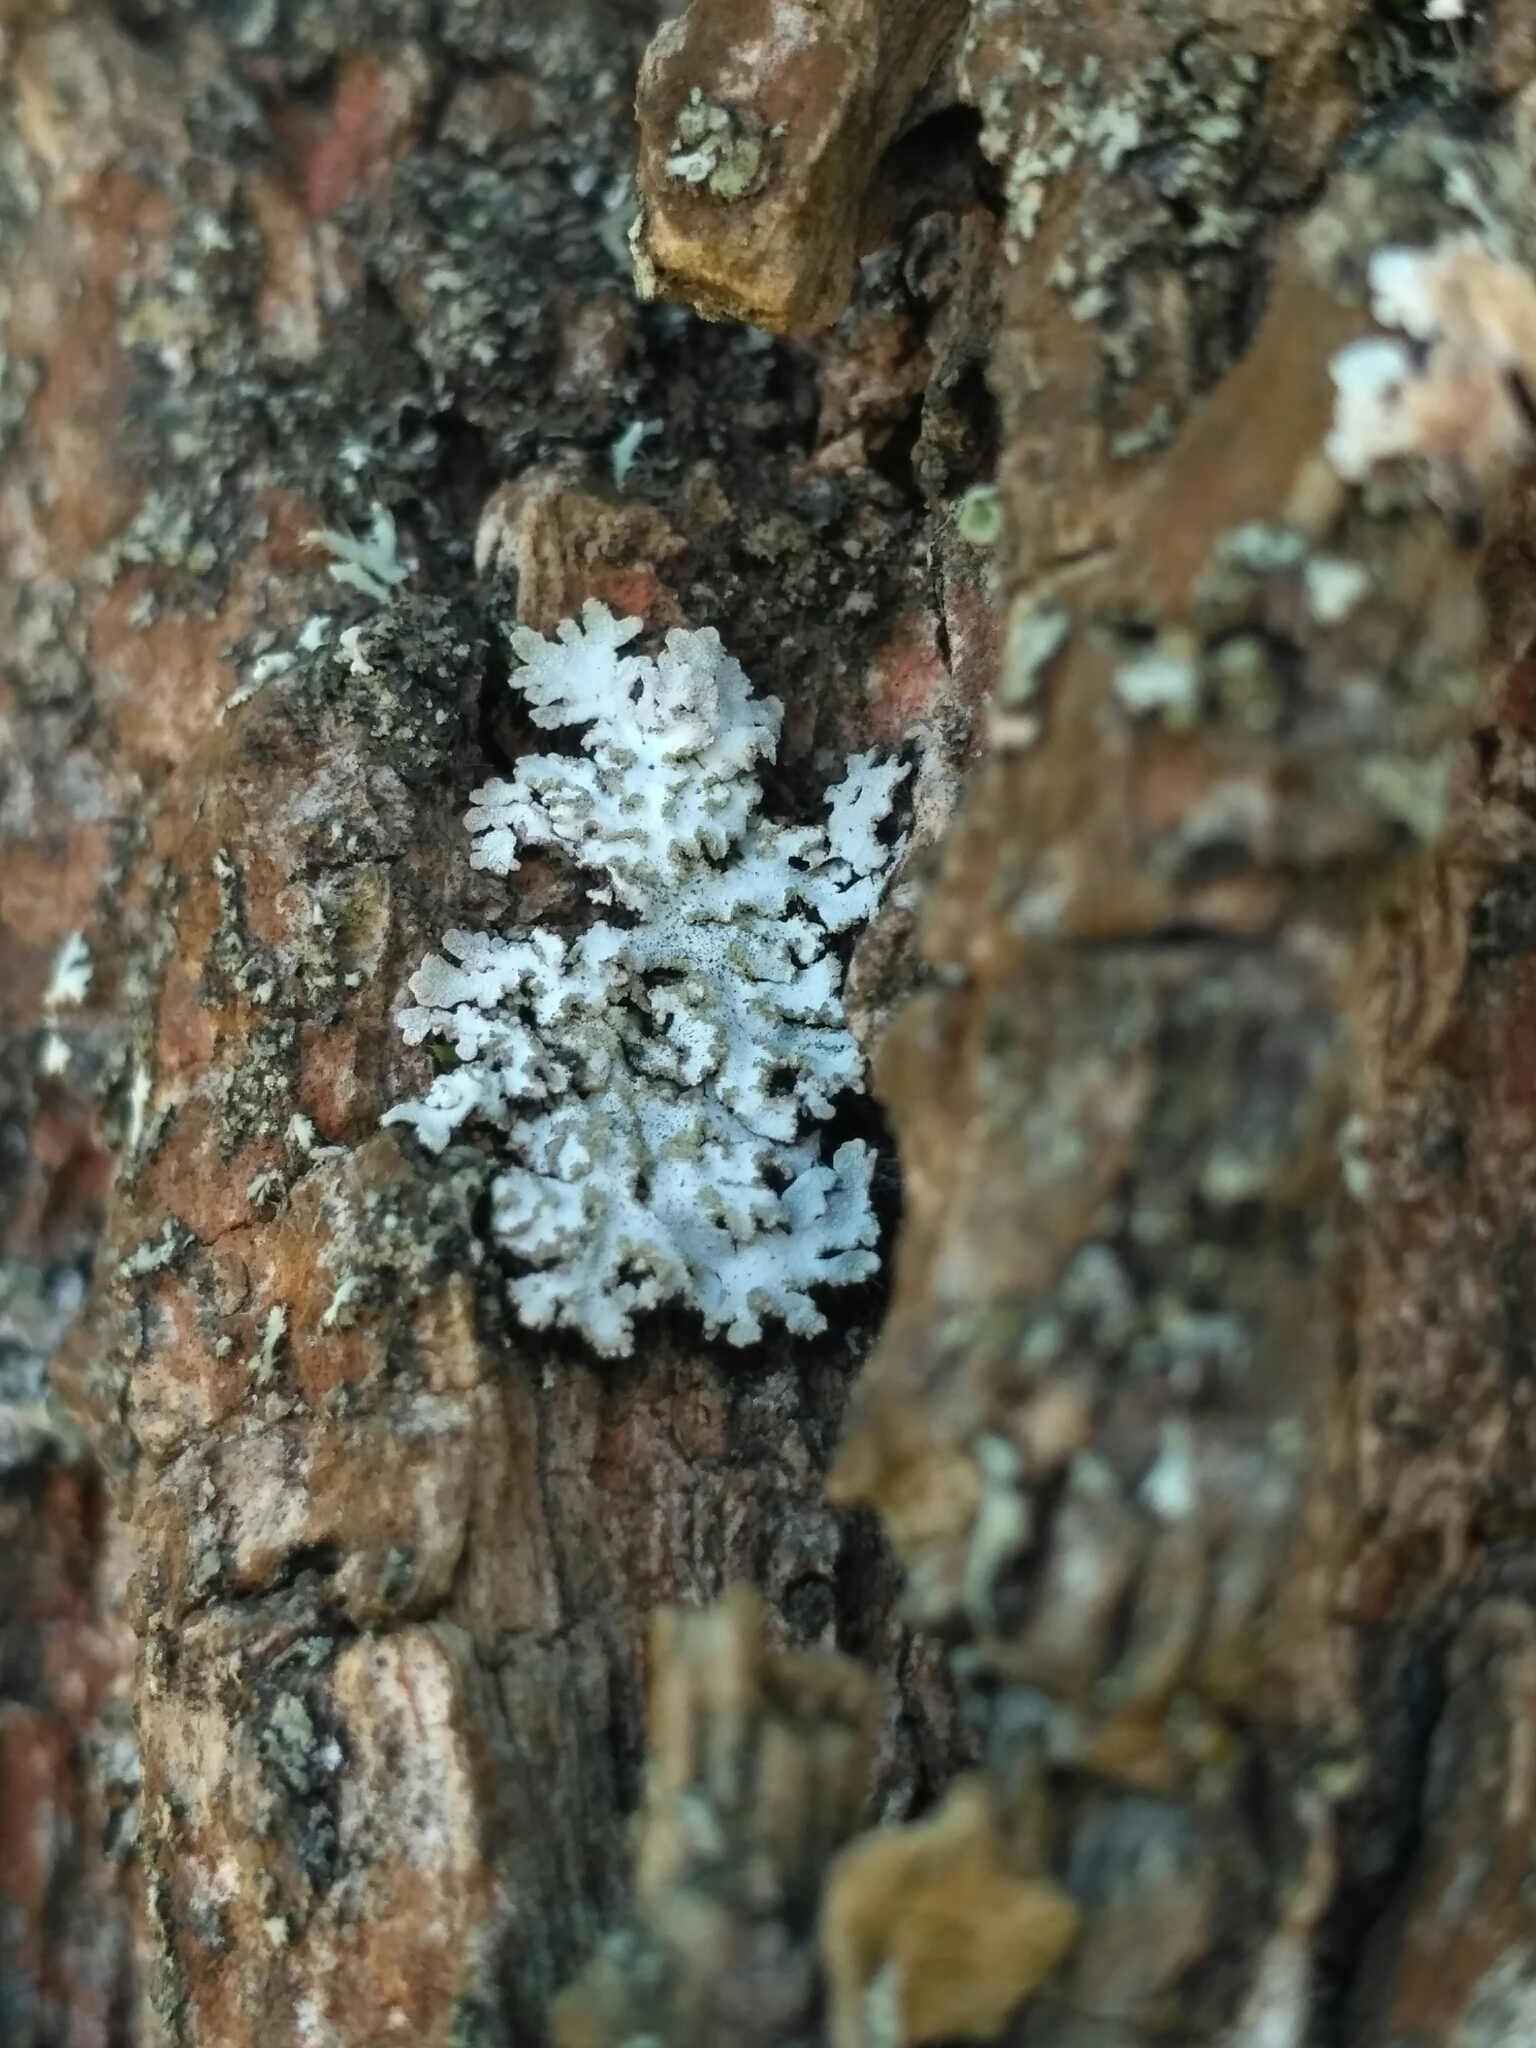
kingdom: Fungi
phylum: Ascomycota
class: Lecanoromycetes
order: Caliciales
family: Physciaceae
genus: Poeltonia
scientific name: Poeltonia grisea
